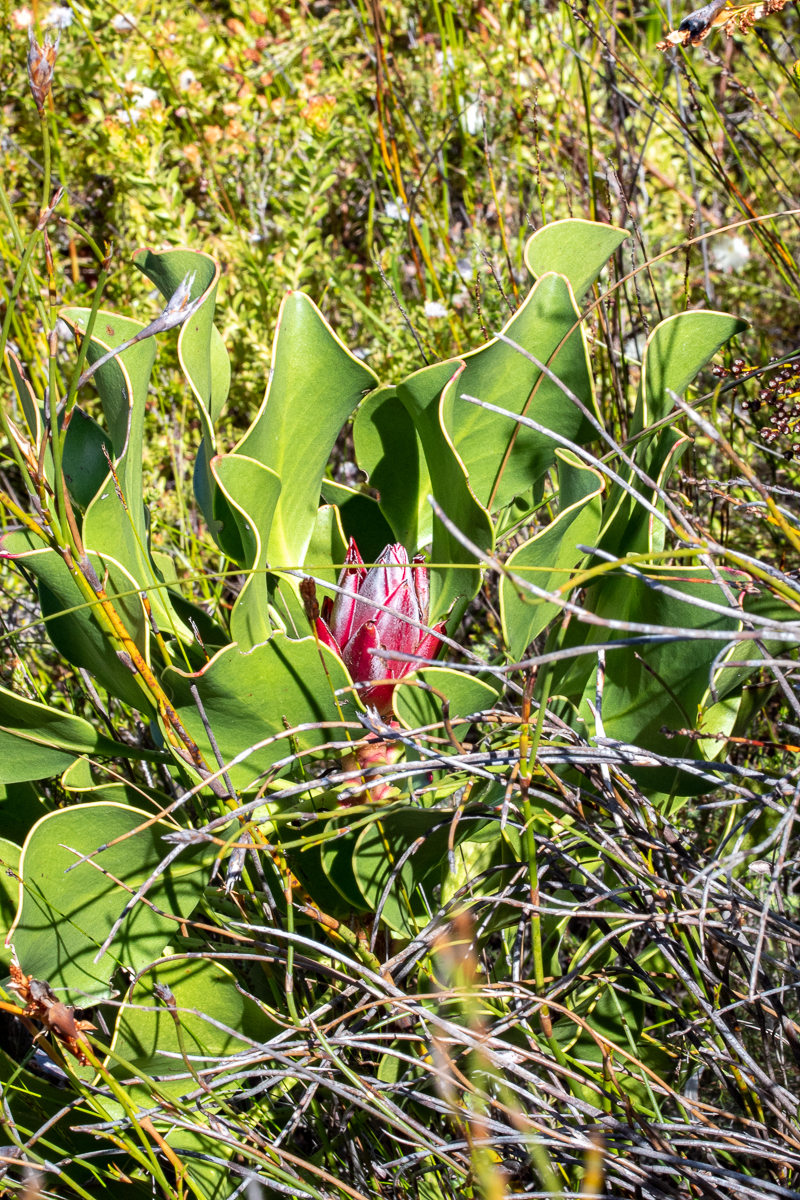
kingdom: Plantae
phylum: Tracheophyta
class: Magnoliopsida
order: Proteales
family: Proteaceae
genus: Protea
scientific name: Protea cynaroides
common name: King protea
